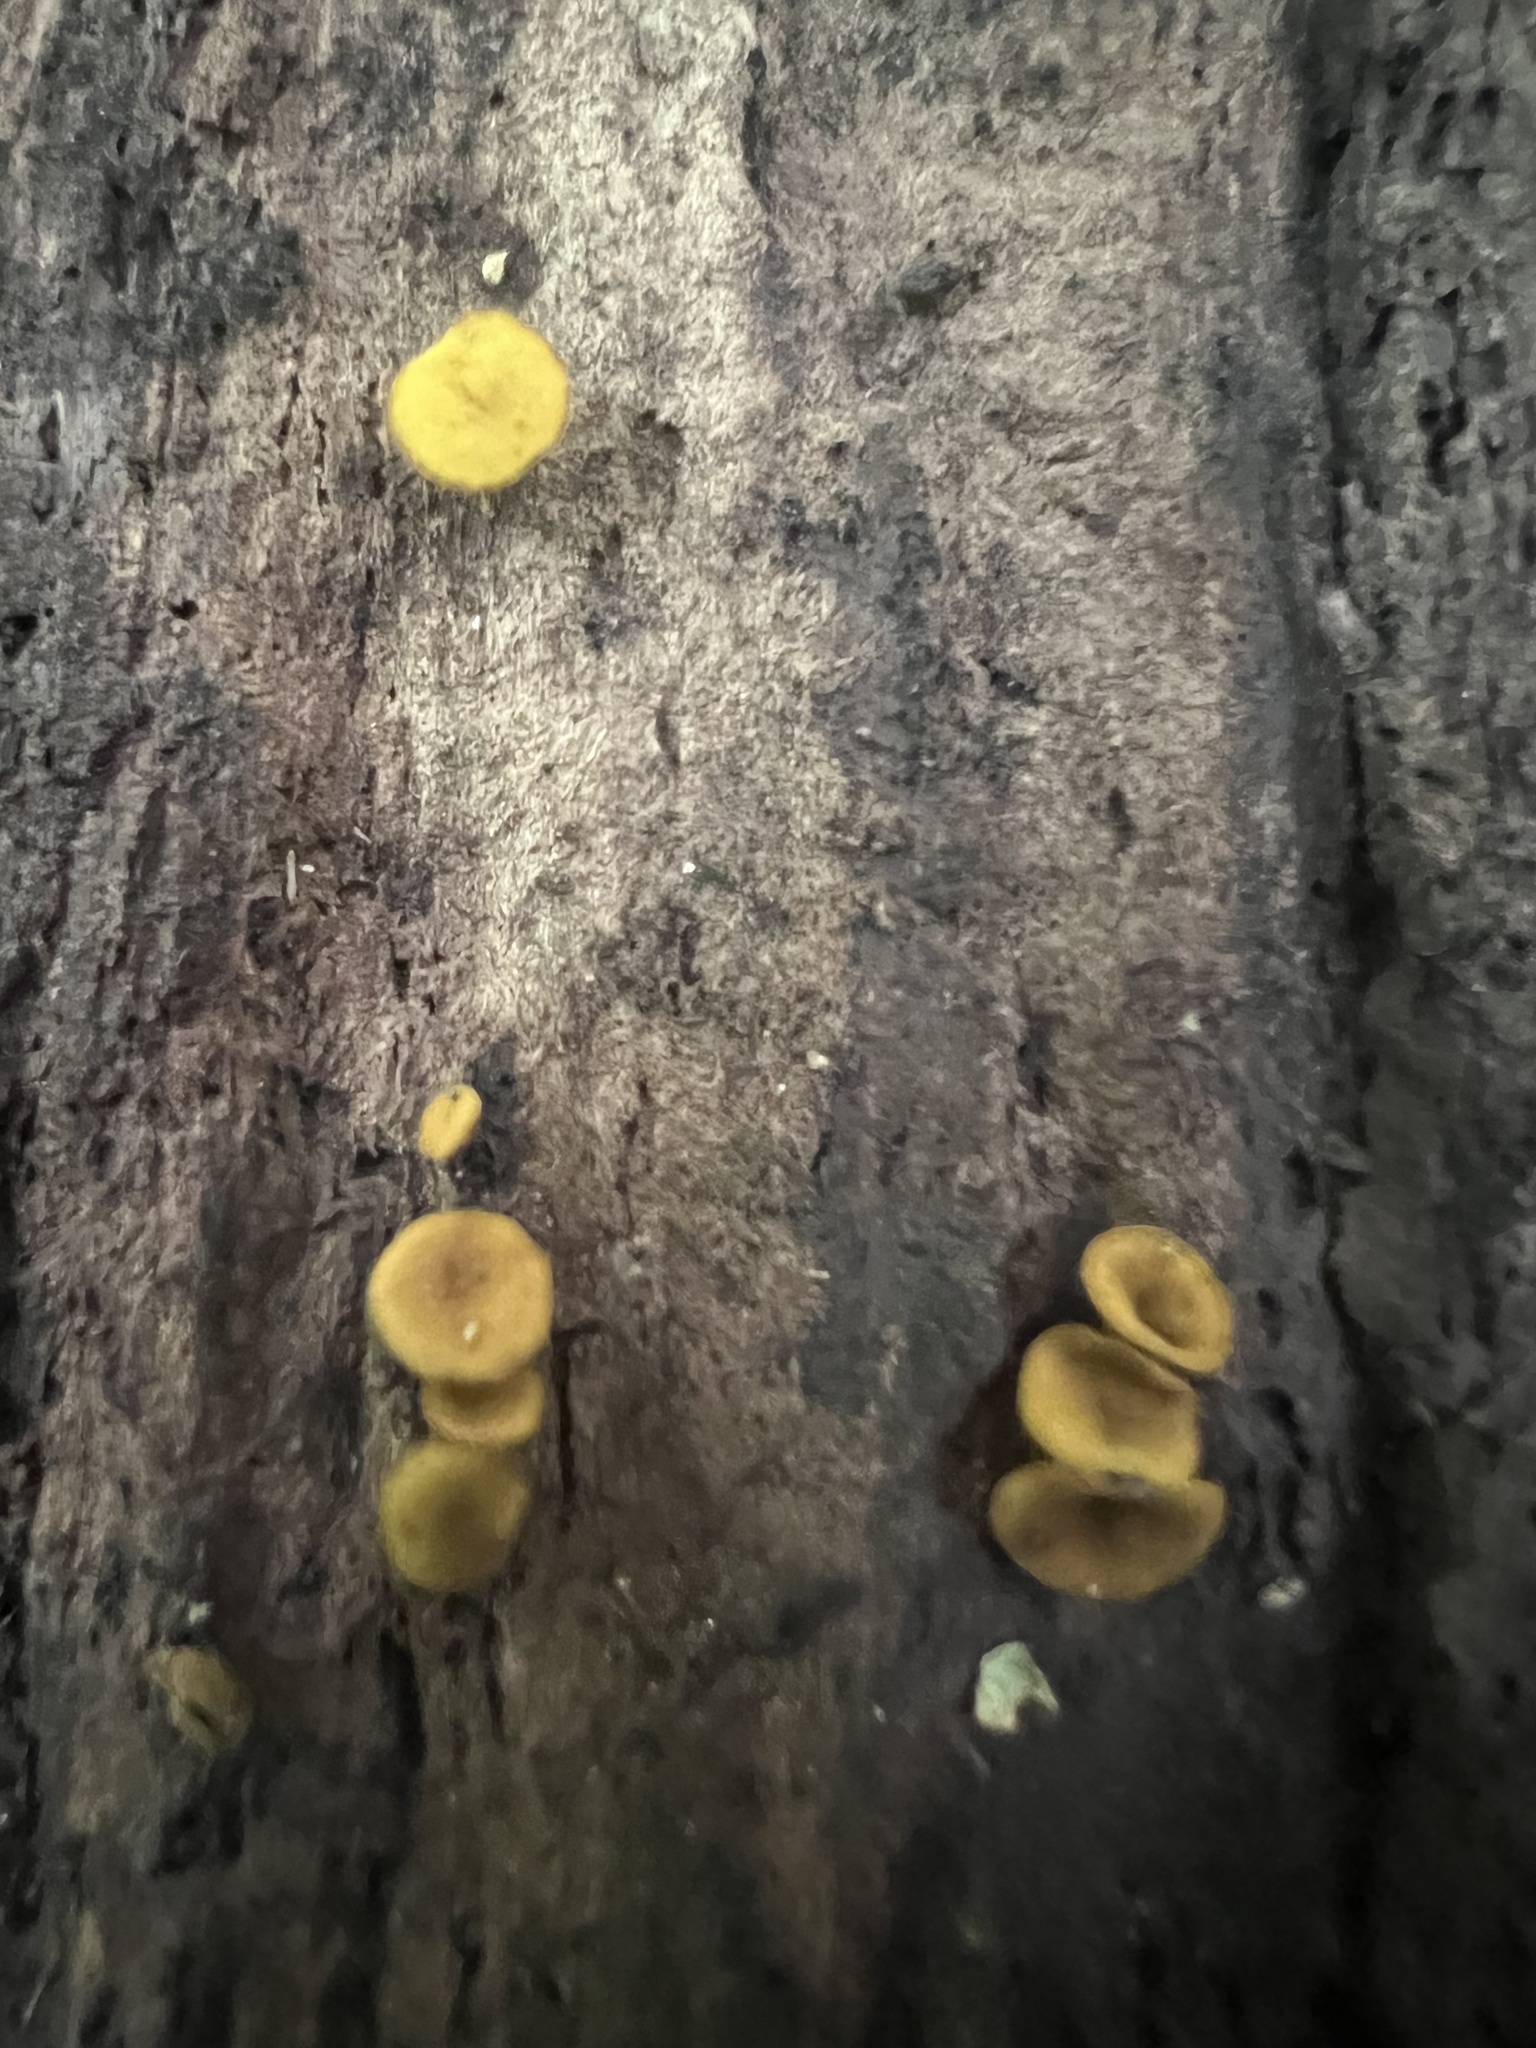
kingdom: Fungi
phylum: Ascomycota
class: Leotiomycetes
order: Helotiales
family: Cenangiaceae
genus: Chlorencoelia
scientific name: Chlorencoelia torta
